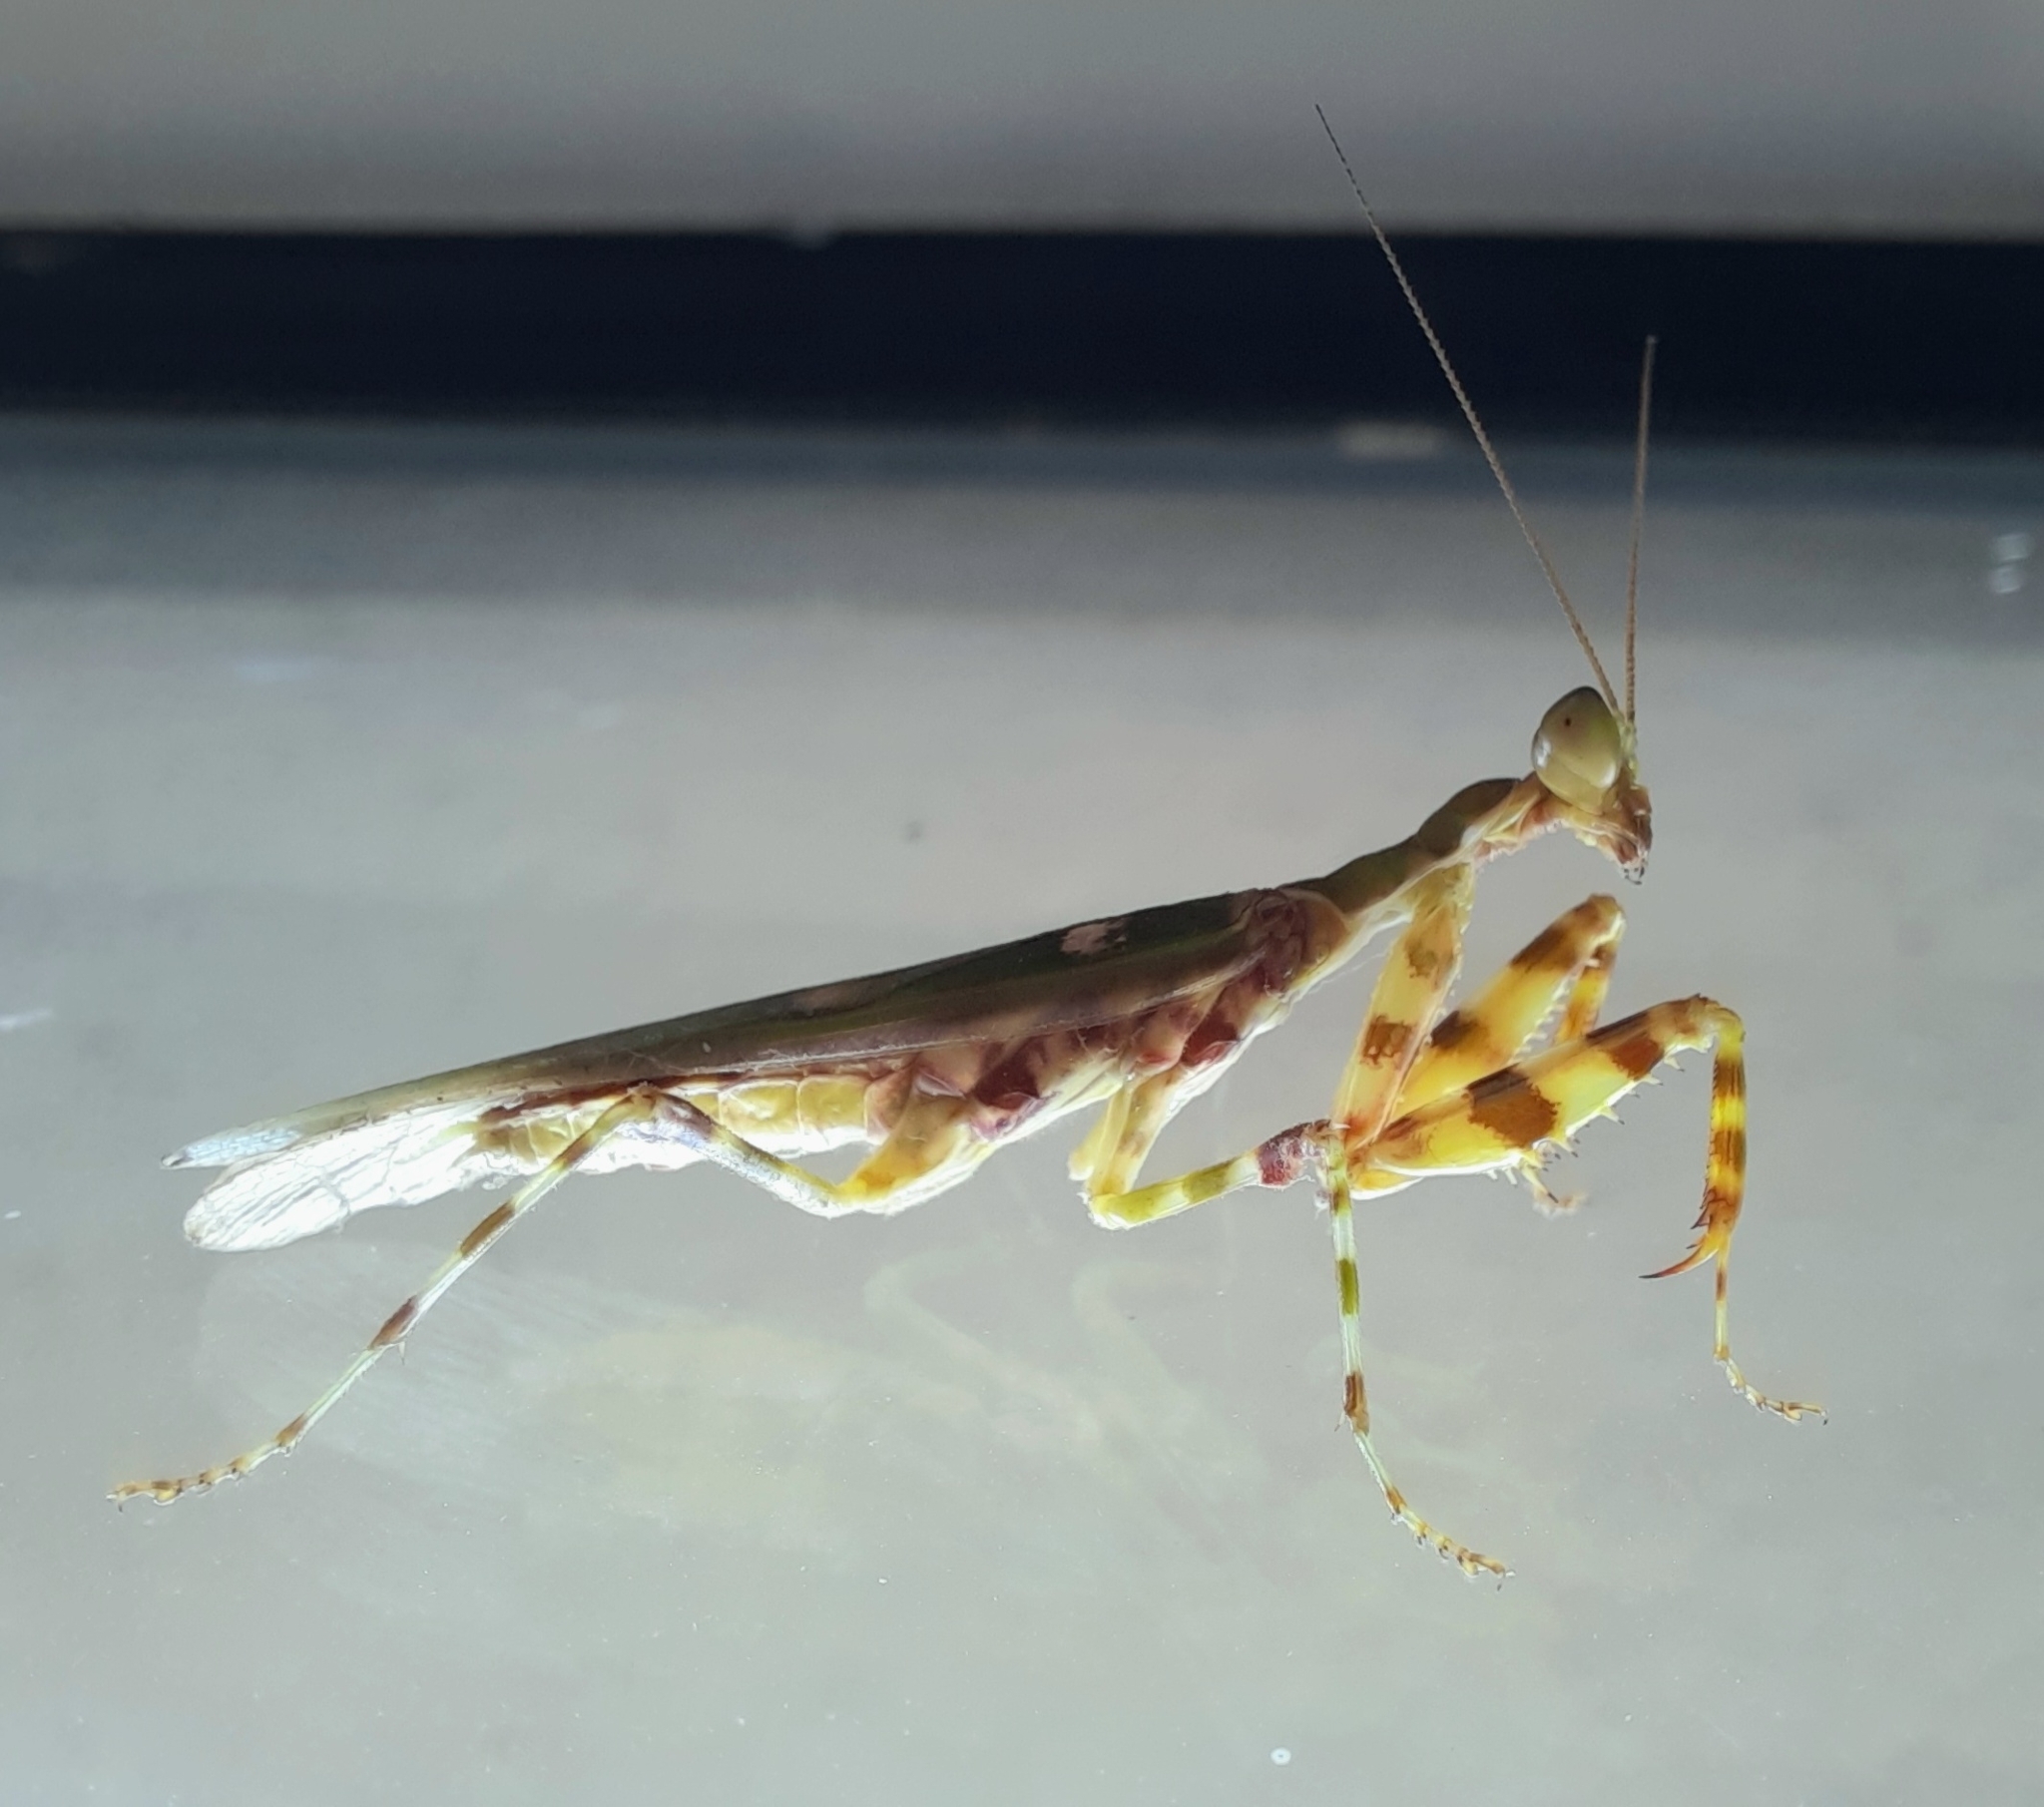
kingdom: Animalia
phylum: Arthropoda
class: Insecta
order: Mantodea
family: Hymenopodidae
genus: Creobroter
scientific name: Creobroter gemmatus
